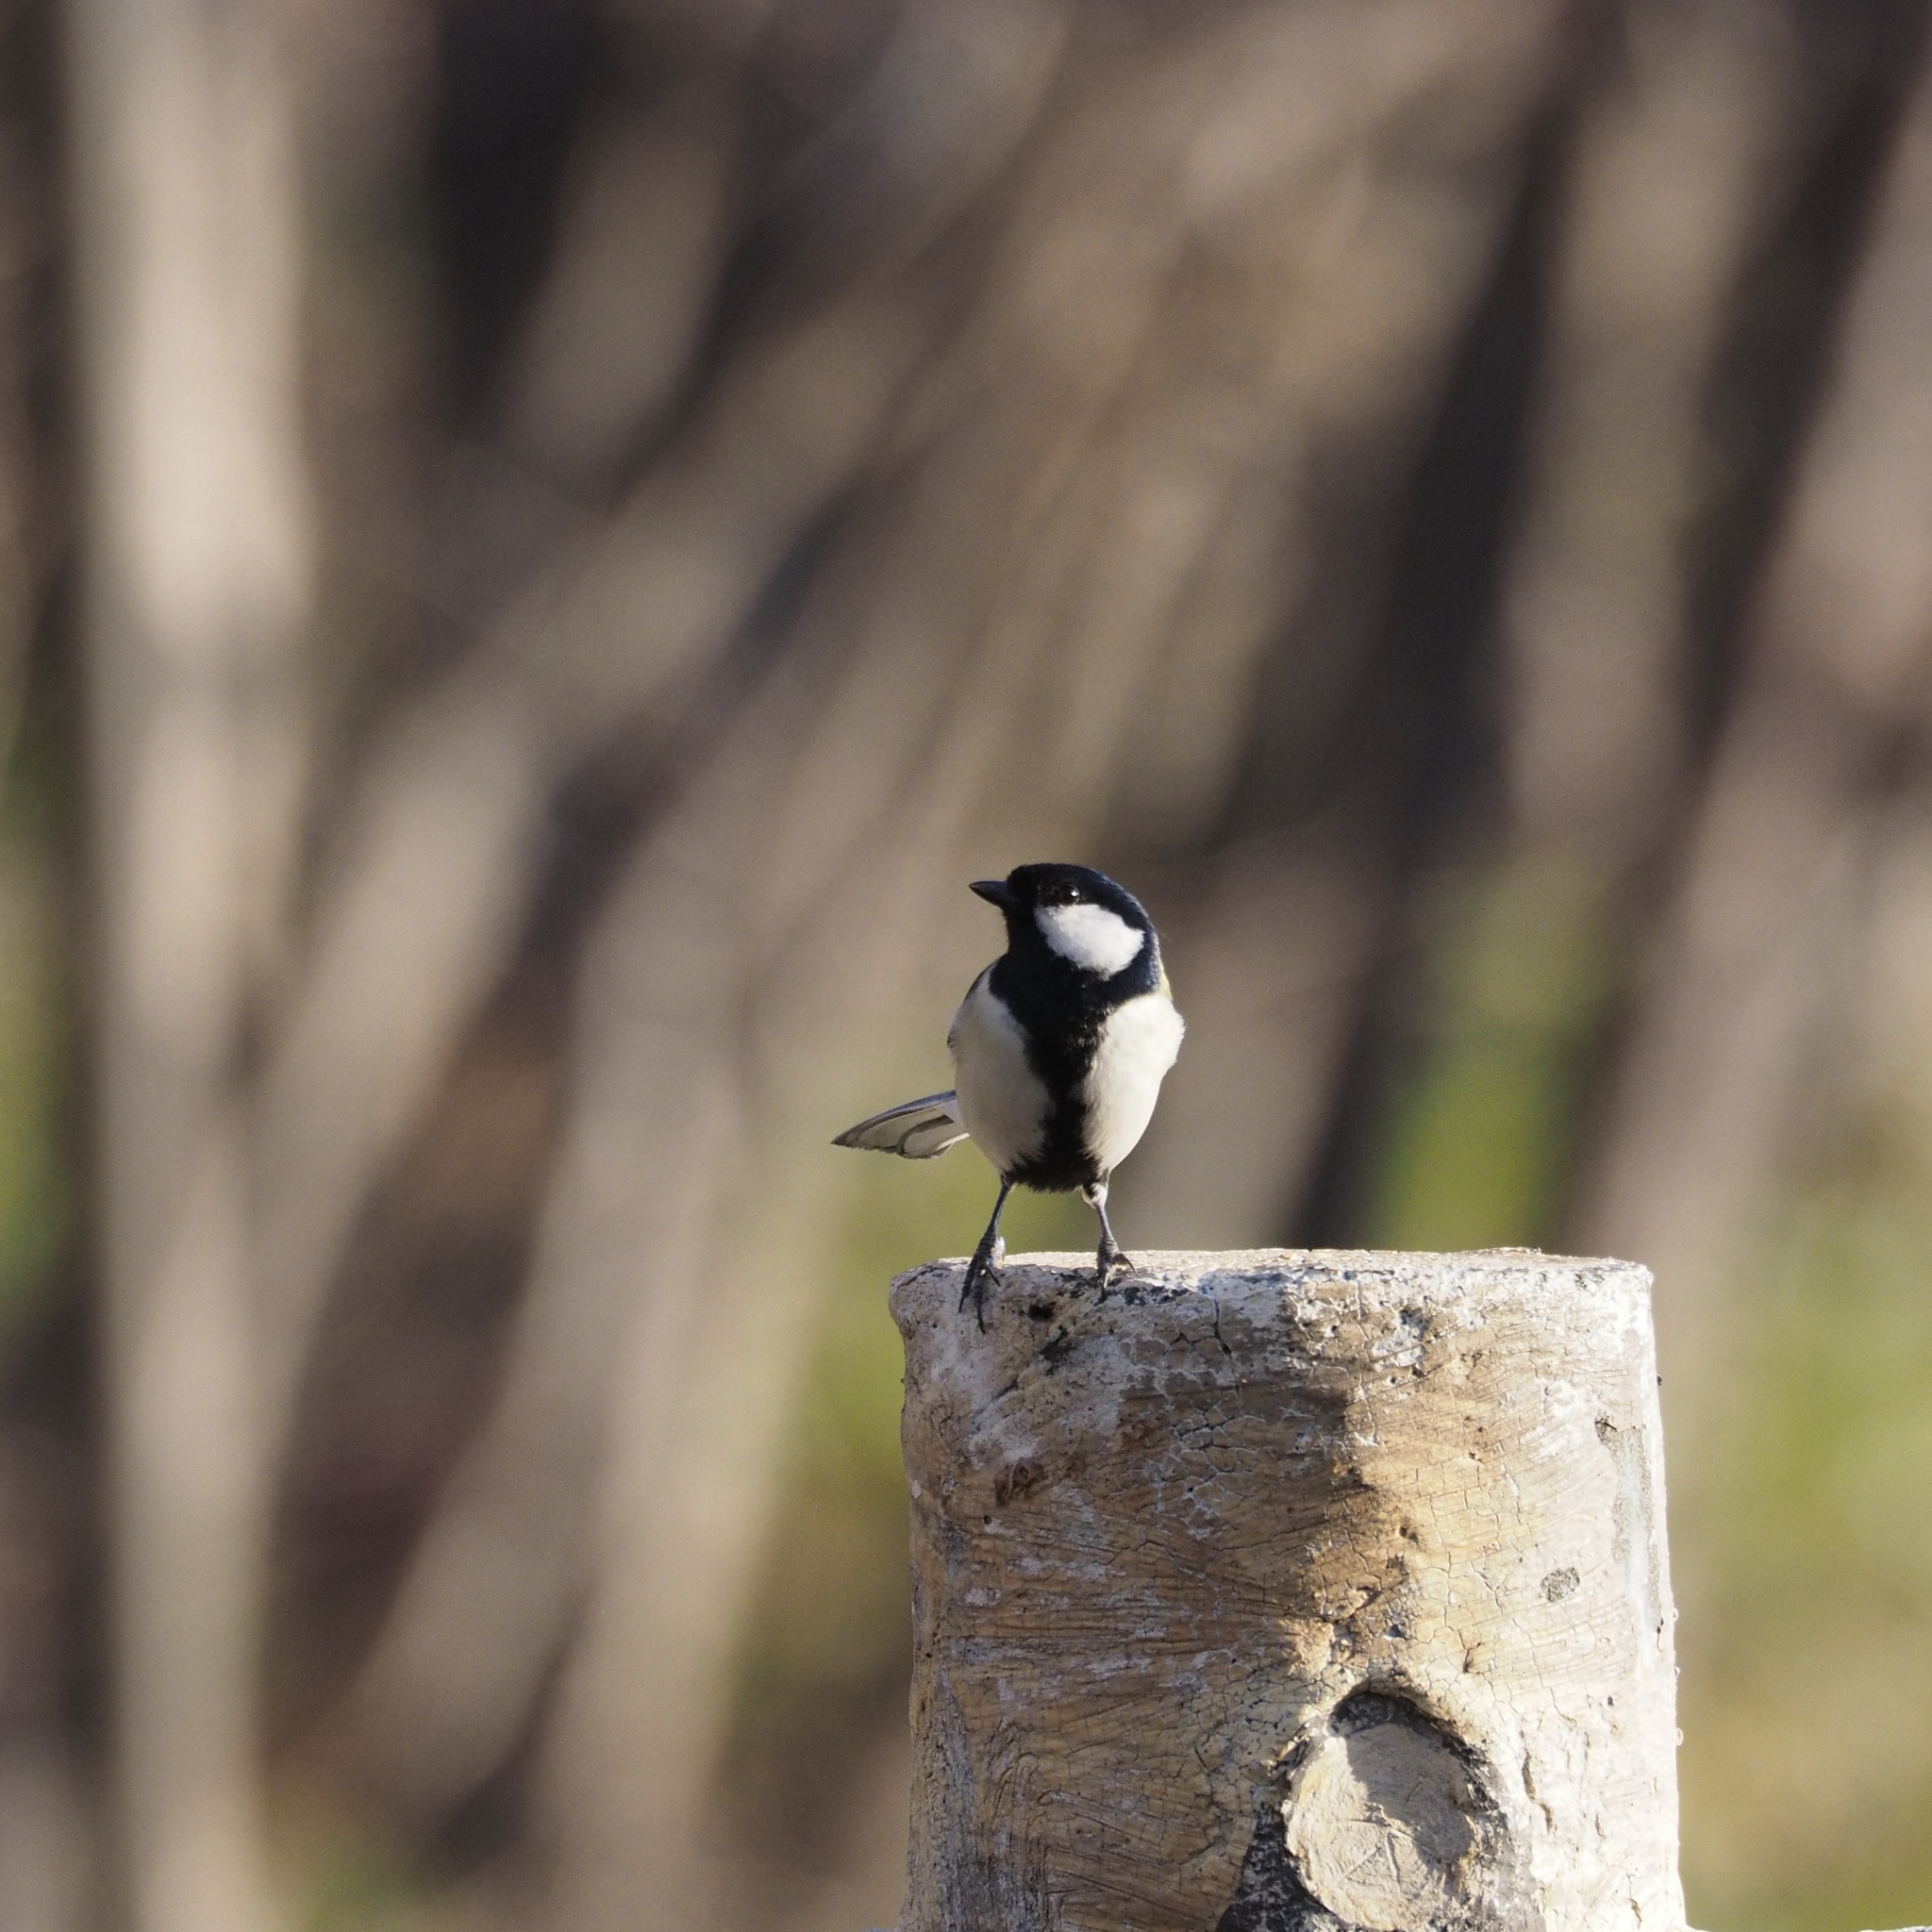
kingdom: Animalia
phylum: Chordata
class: Aves
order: Passeriformes
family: Paridae
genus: Parus
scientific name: Parus minor
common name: Japanese tit
